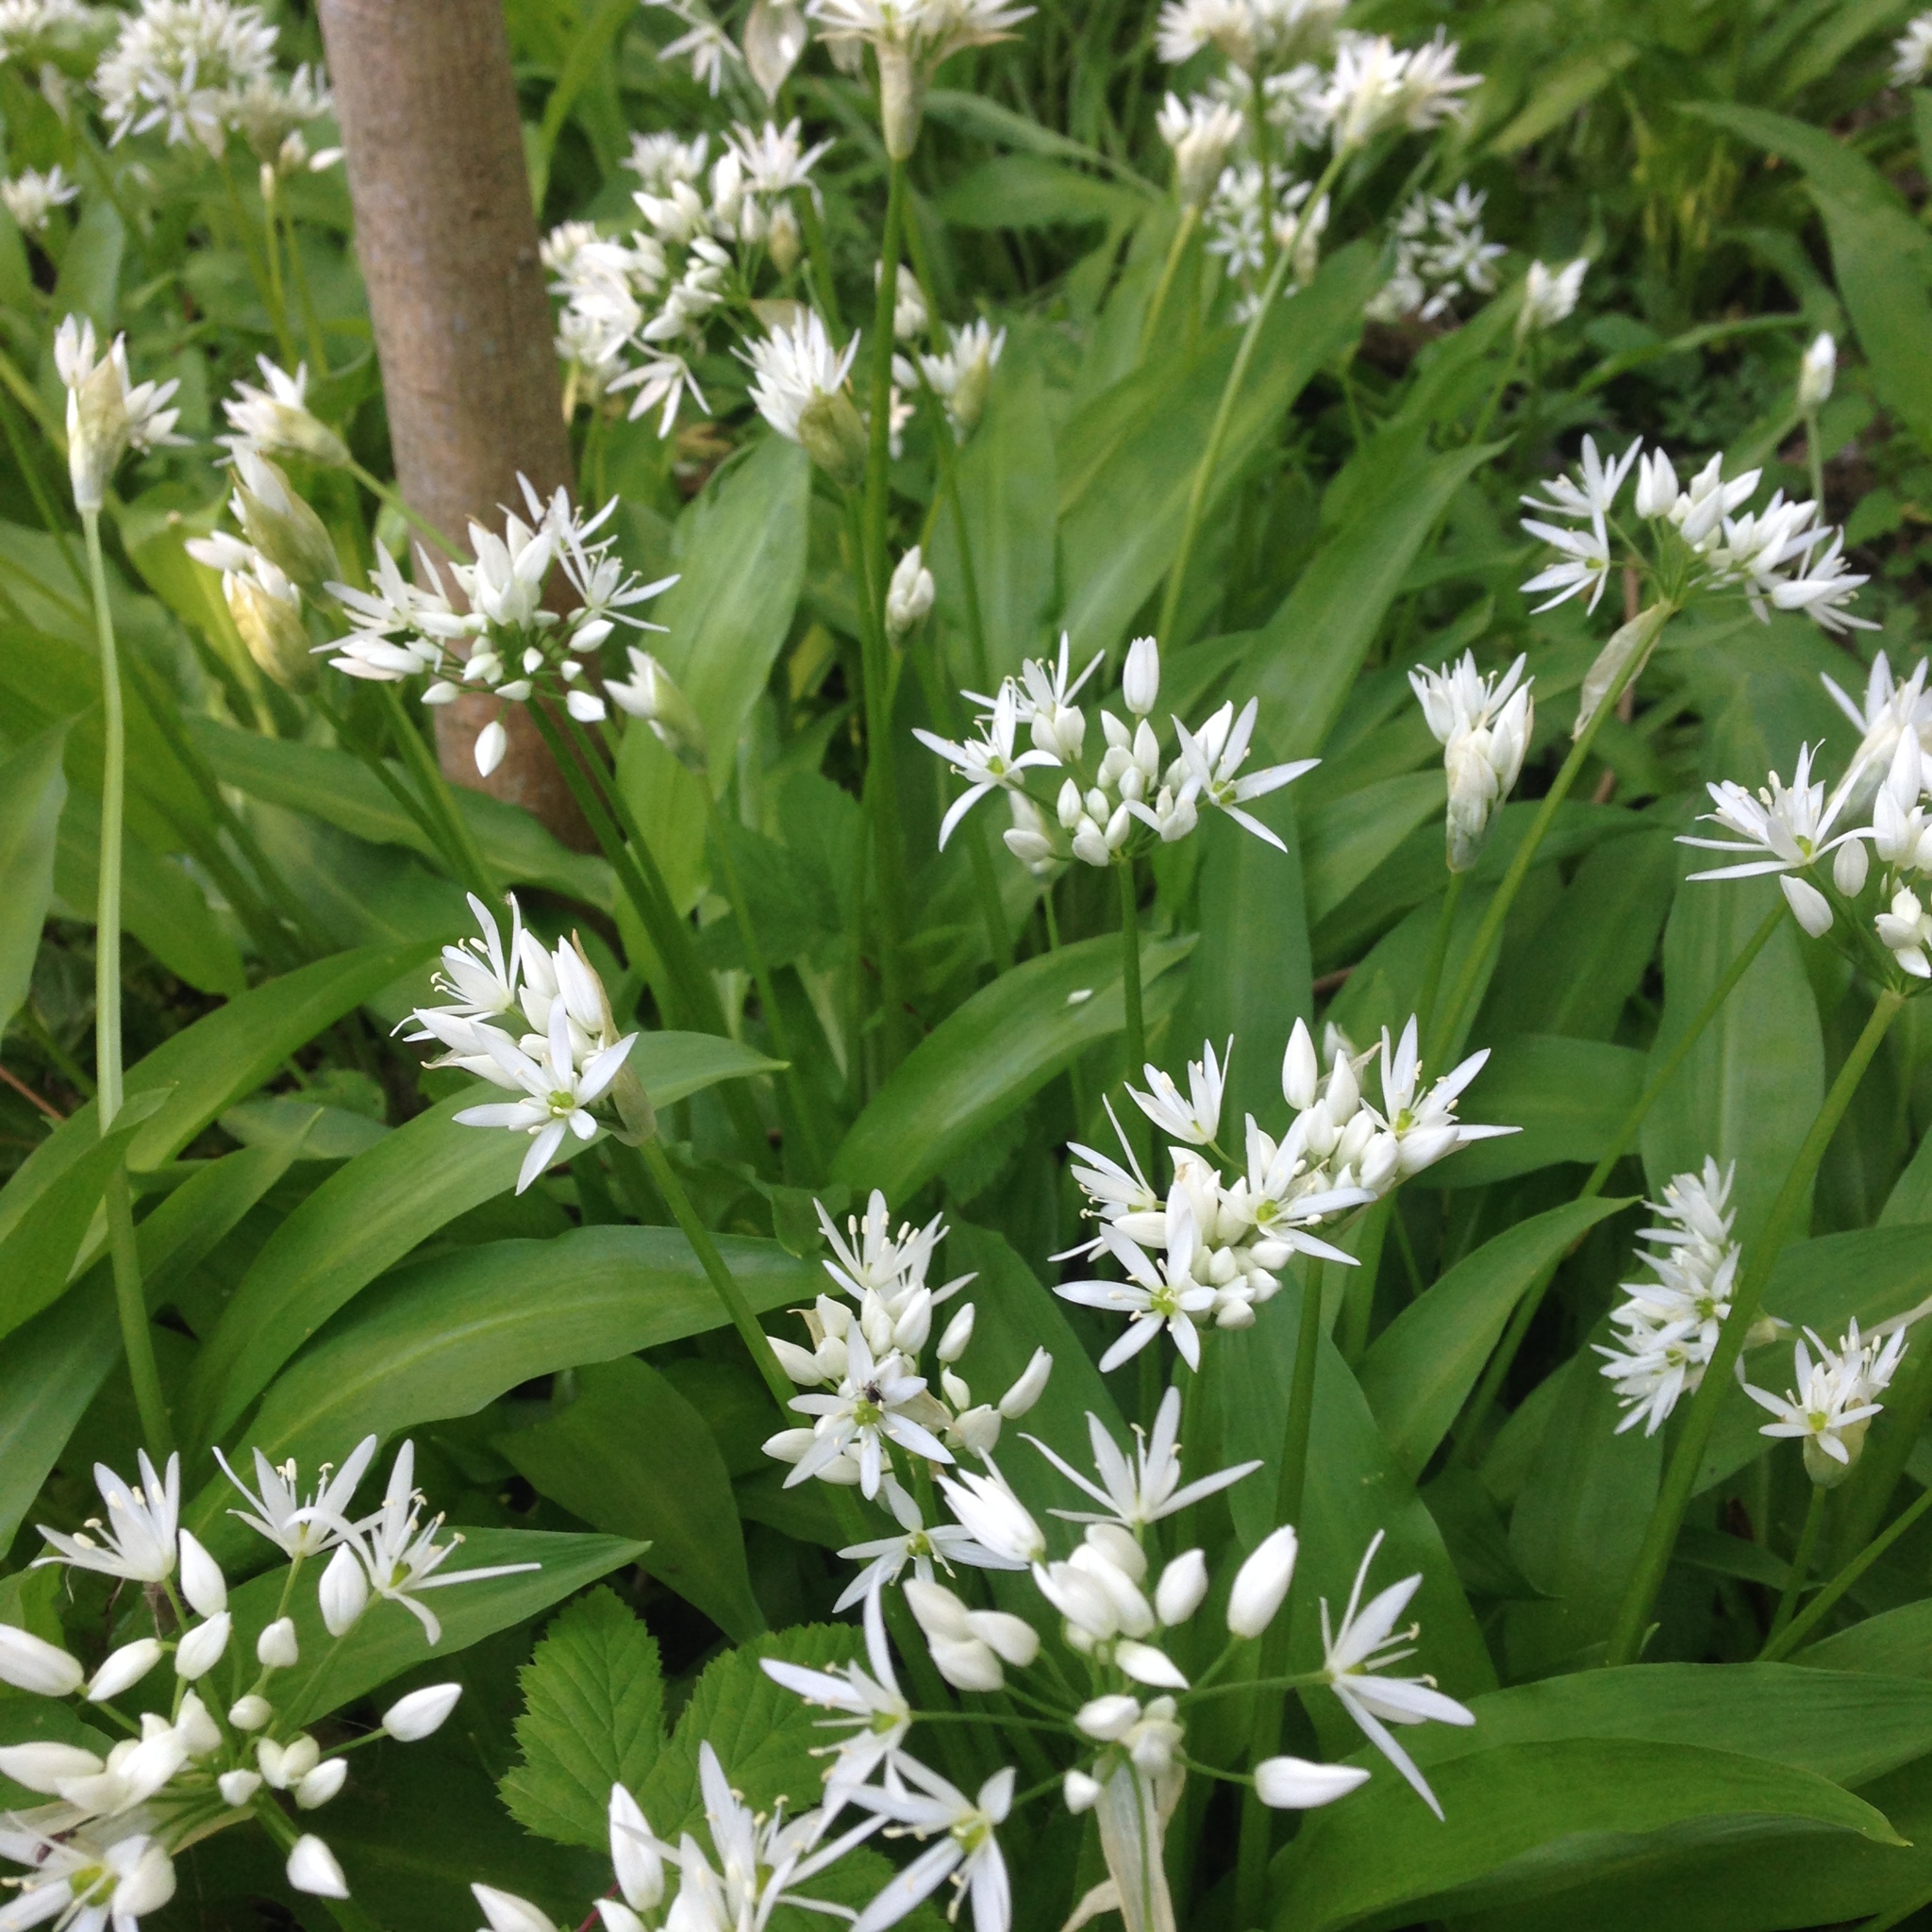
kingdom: Plantae
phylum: Tracheophyta
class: Liliopsida
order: Asparagales
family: Amaryllidaceae
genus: Allium
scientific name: Allium ursinum
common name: Ramsons
